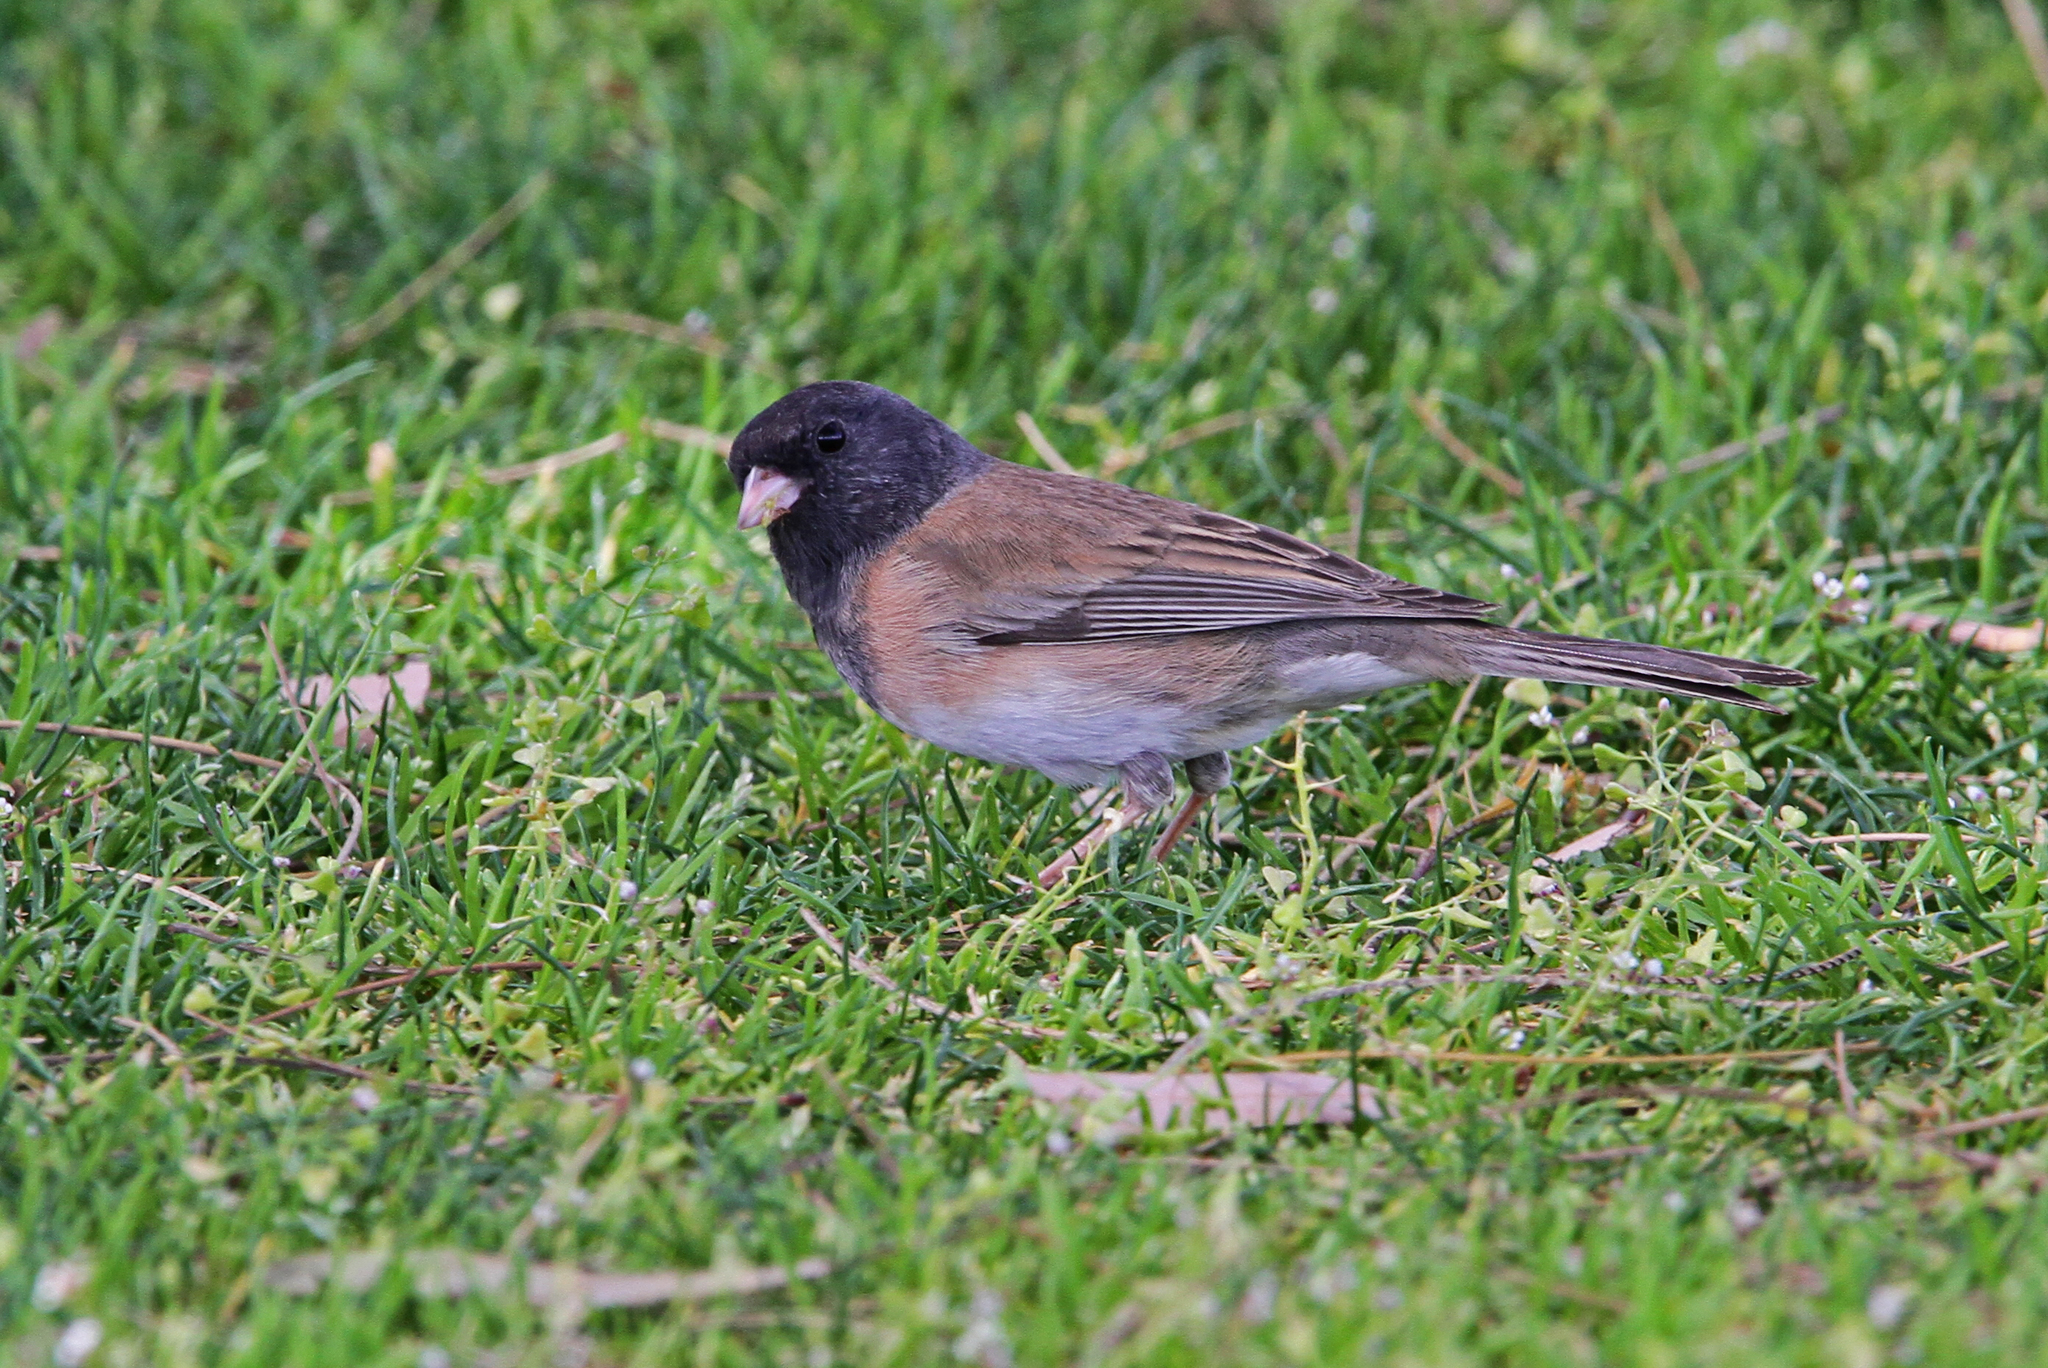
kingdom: Animalia
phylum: Chordata
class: Aves
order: Passeriformes
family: Passerellidae
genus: Junco
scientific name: Junco hyemalis
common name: Dark-eyed junco
